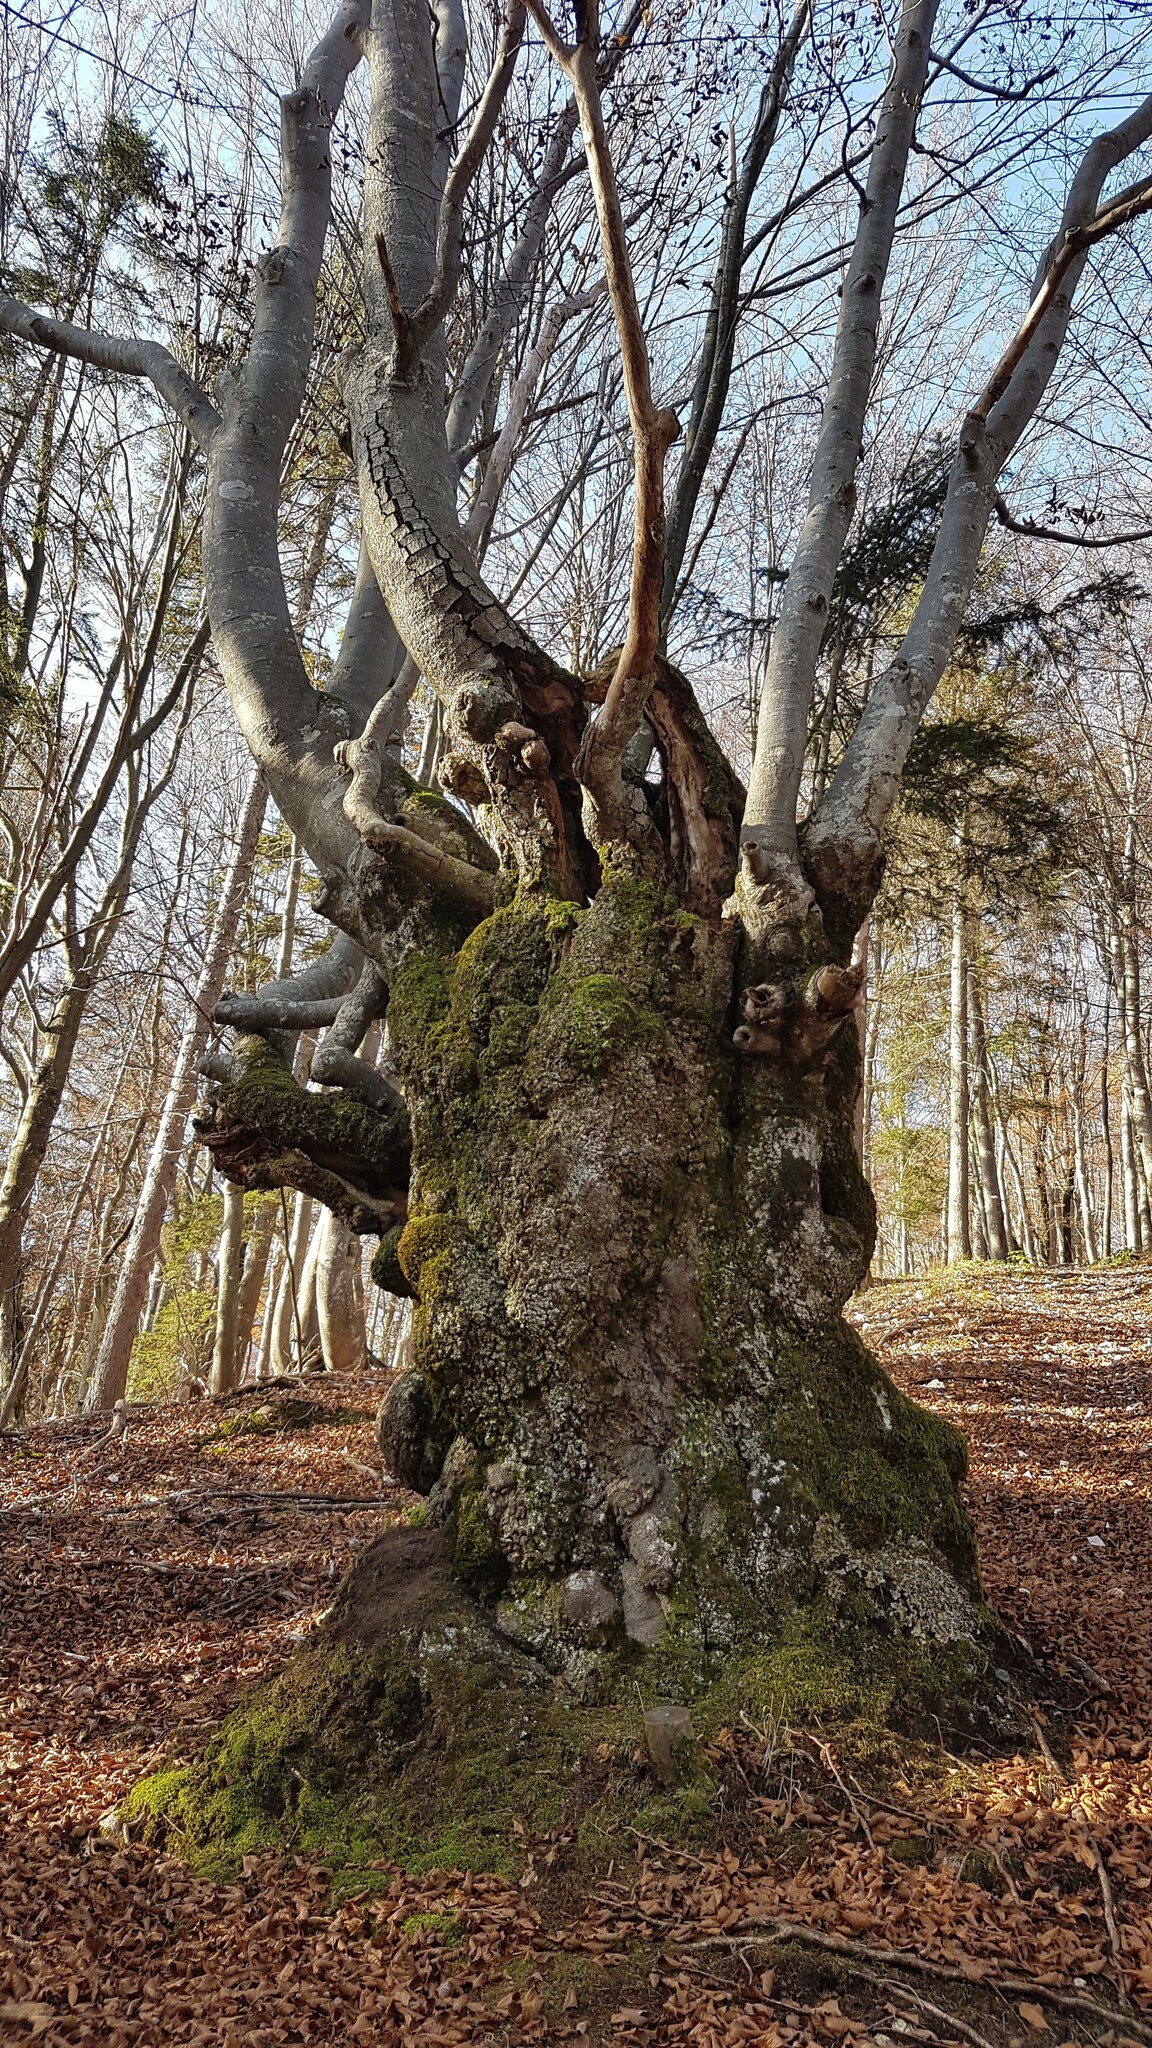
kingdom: Plantae
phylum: Tracheophyta
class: Magnoliopsida
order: Fagales
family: Fagaceae
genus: Fagus
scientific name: Fagus sylvatica
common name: Beech
